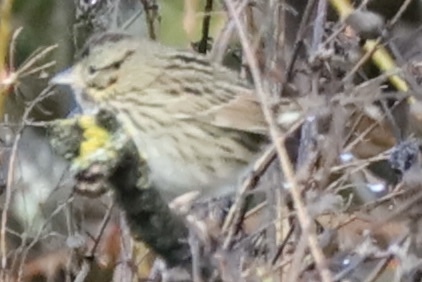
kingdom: Animalia
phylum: Chordata
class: Aves
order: Passeriformes
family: Passerellidae
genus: Melospiza
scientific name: Melospiza lincolnii
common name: Lincoln's sparrow
